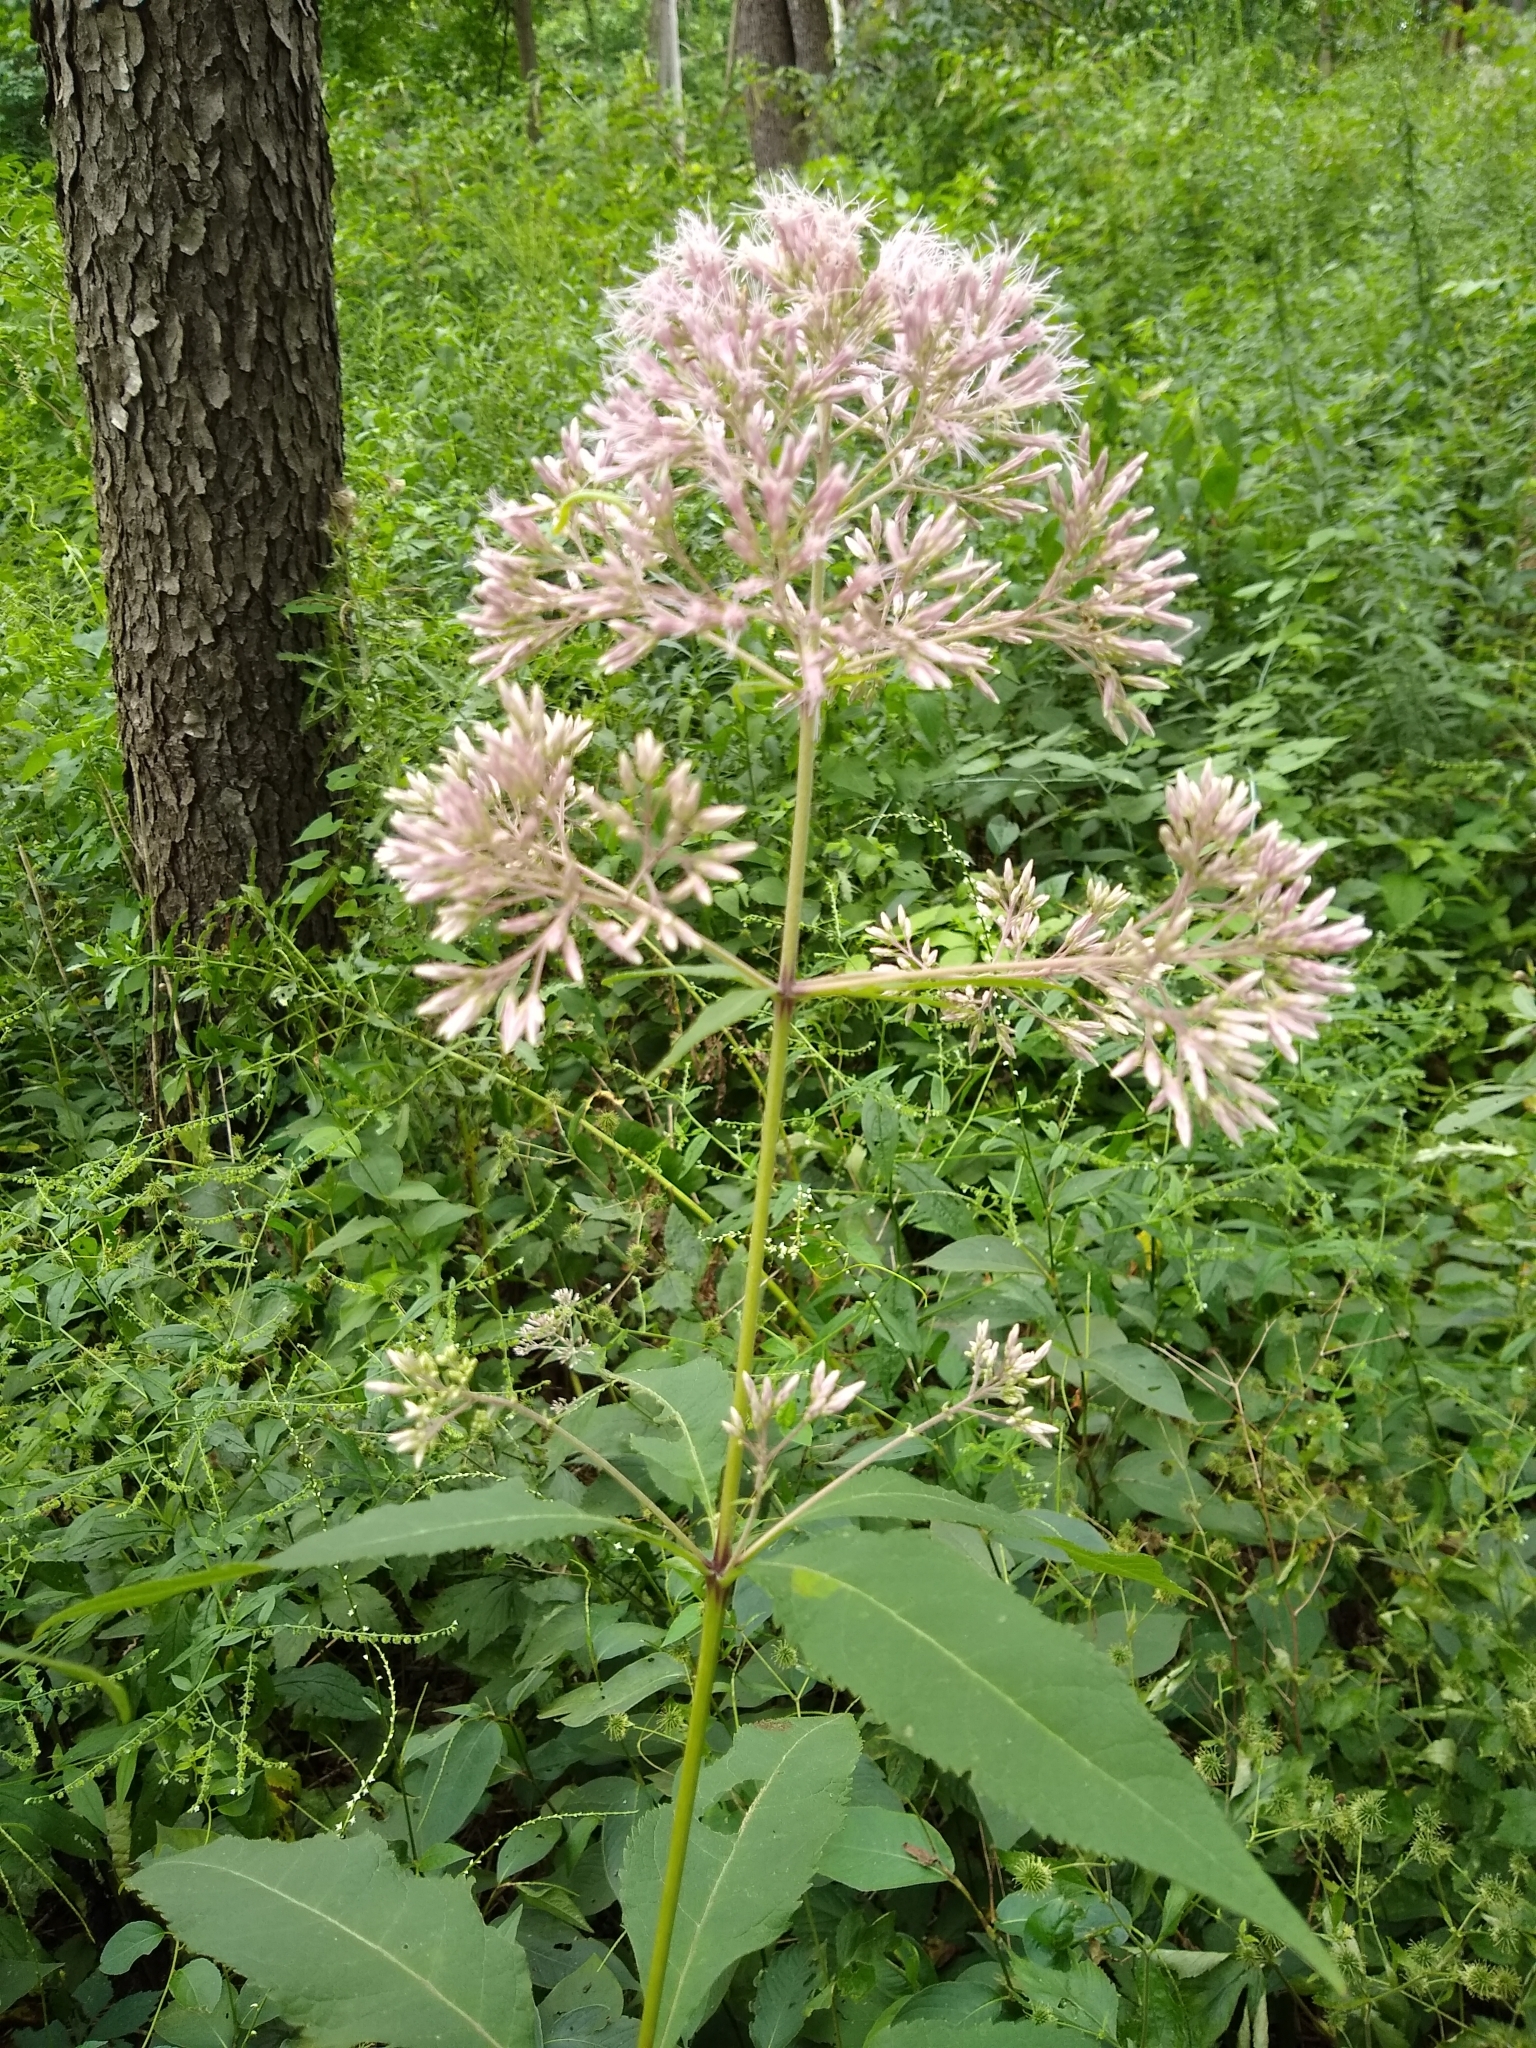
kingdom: Plantae
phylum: Tracheophyta
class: Magnoliopsida
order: Asterales
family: Asteraceae
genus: Eutrochium
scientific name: Eutrochium purpureum
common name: Gravelroot
